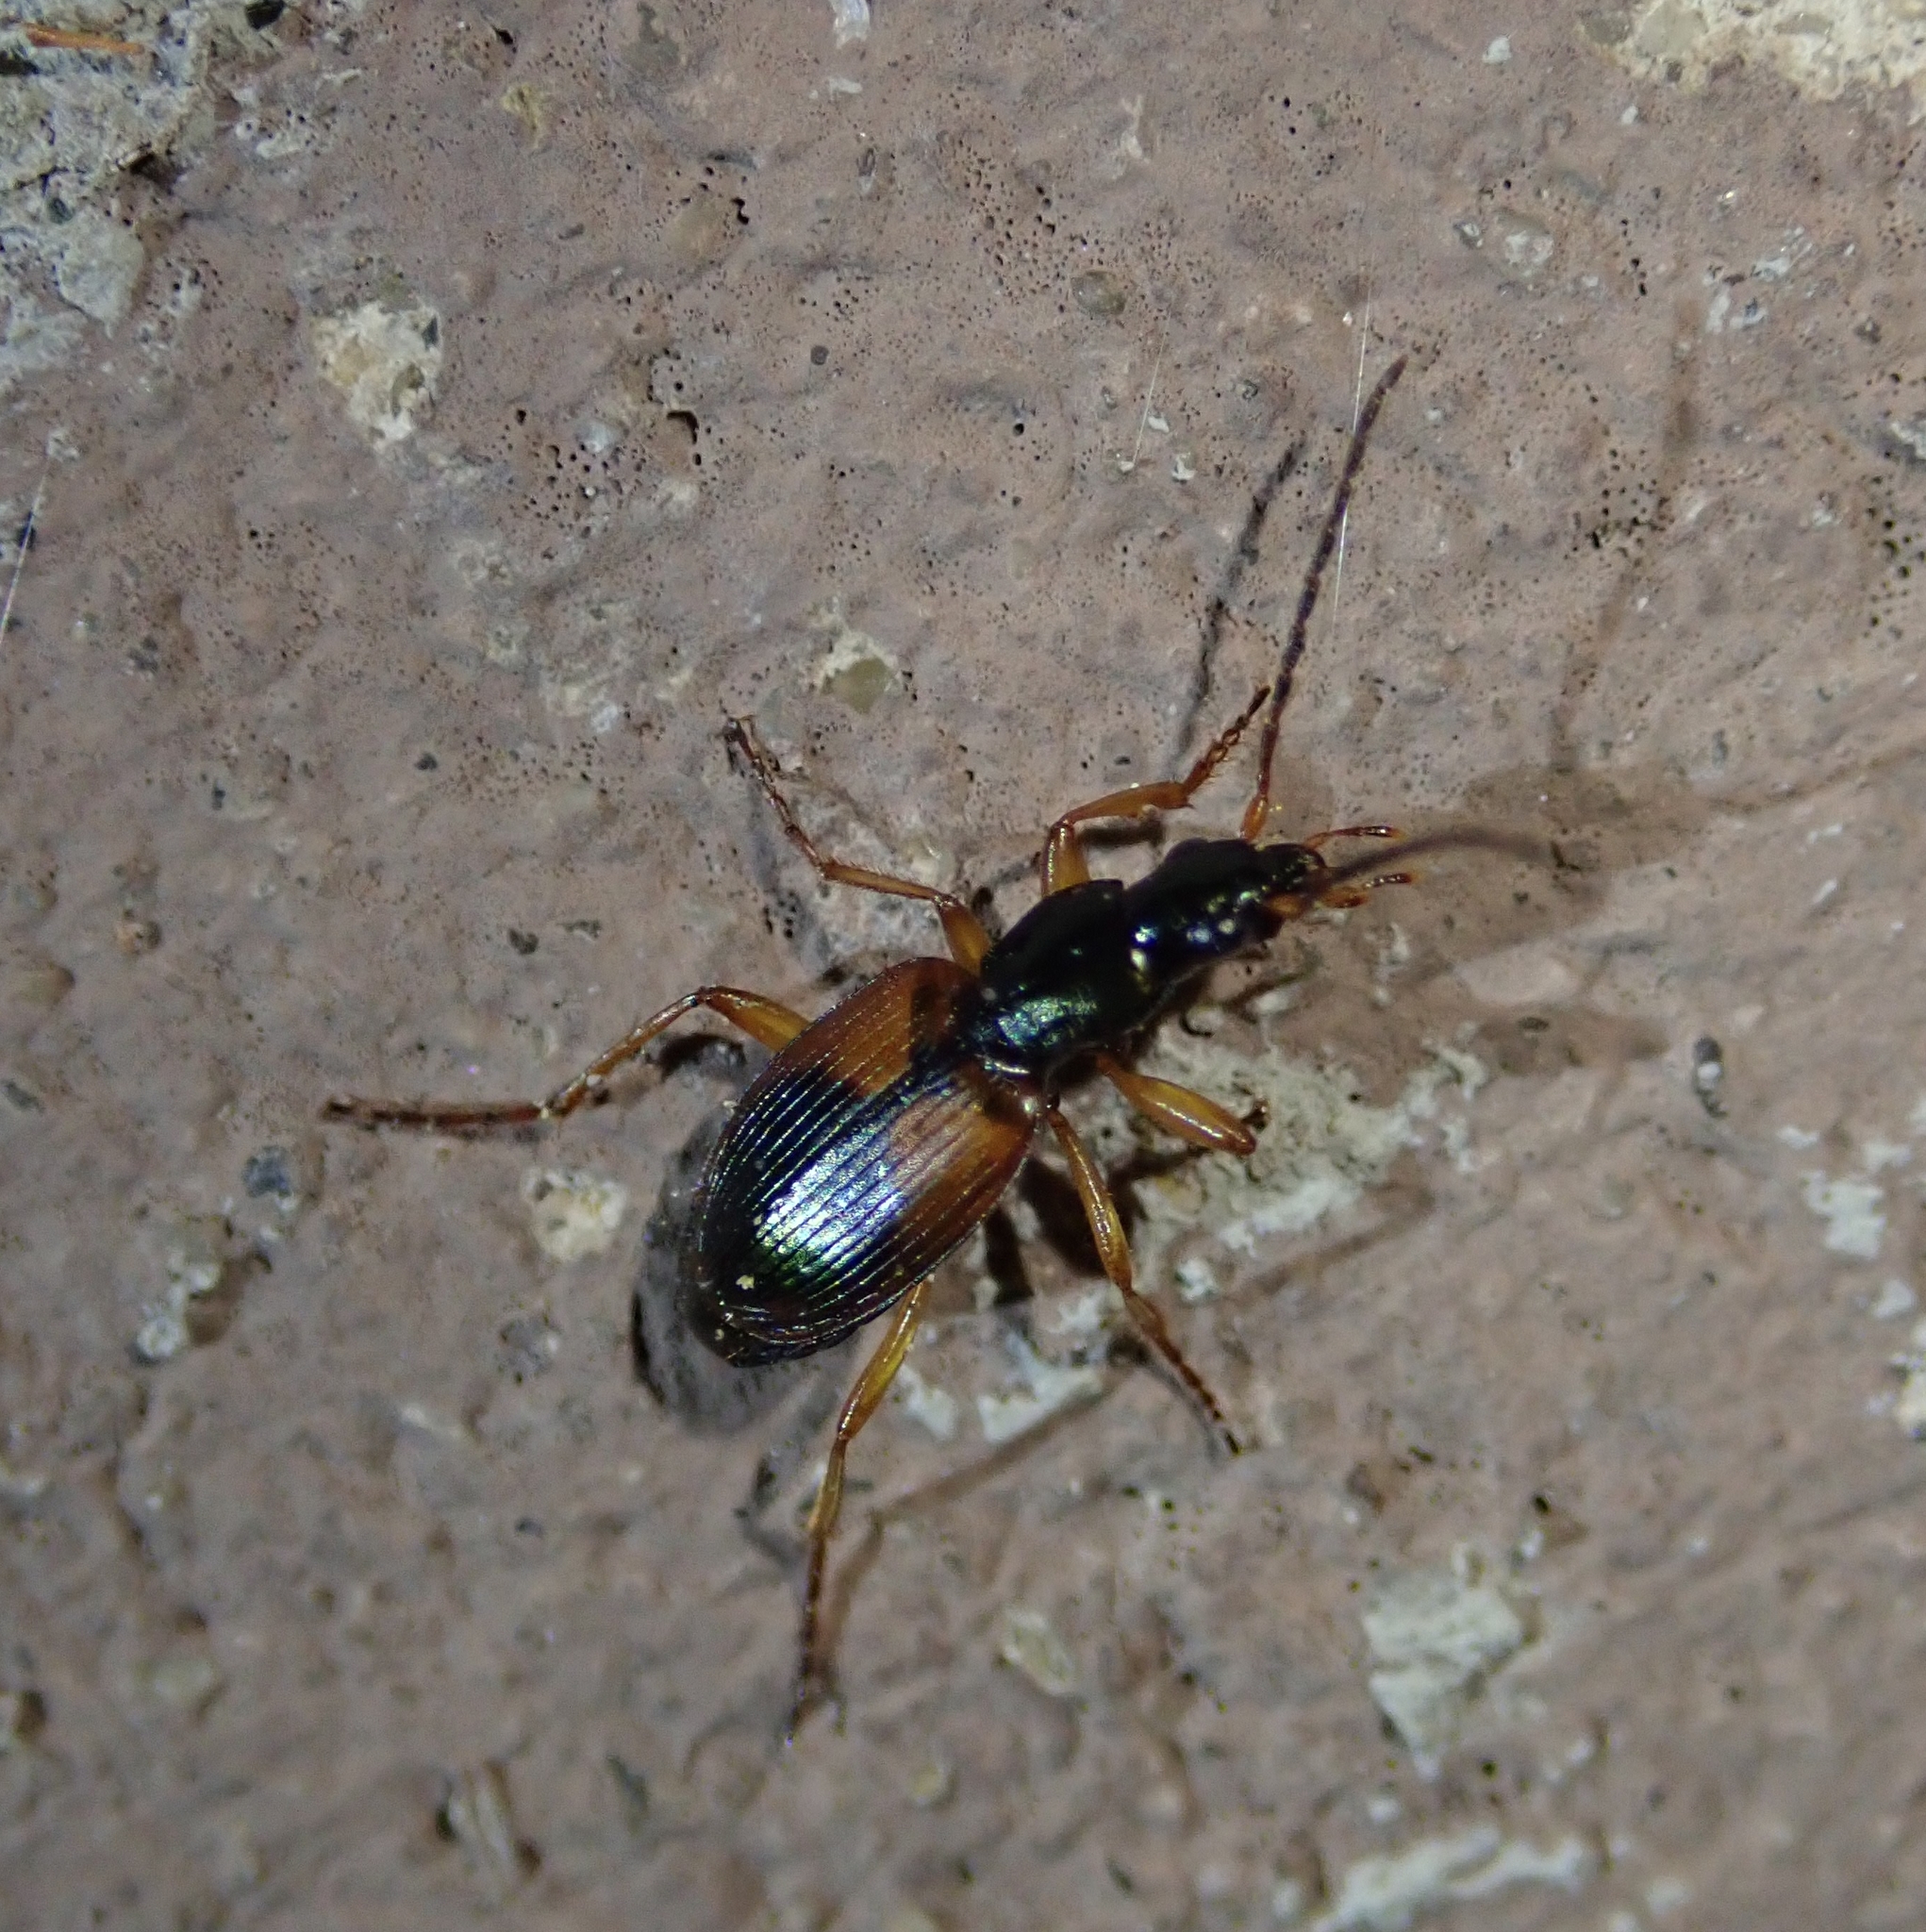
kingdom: Animalia
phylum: Arthropoda
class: Insecta
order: Coleoptera
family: Carabidae
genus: Anchomenus
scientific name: Anchomenus dorsalis
